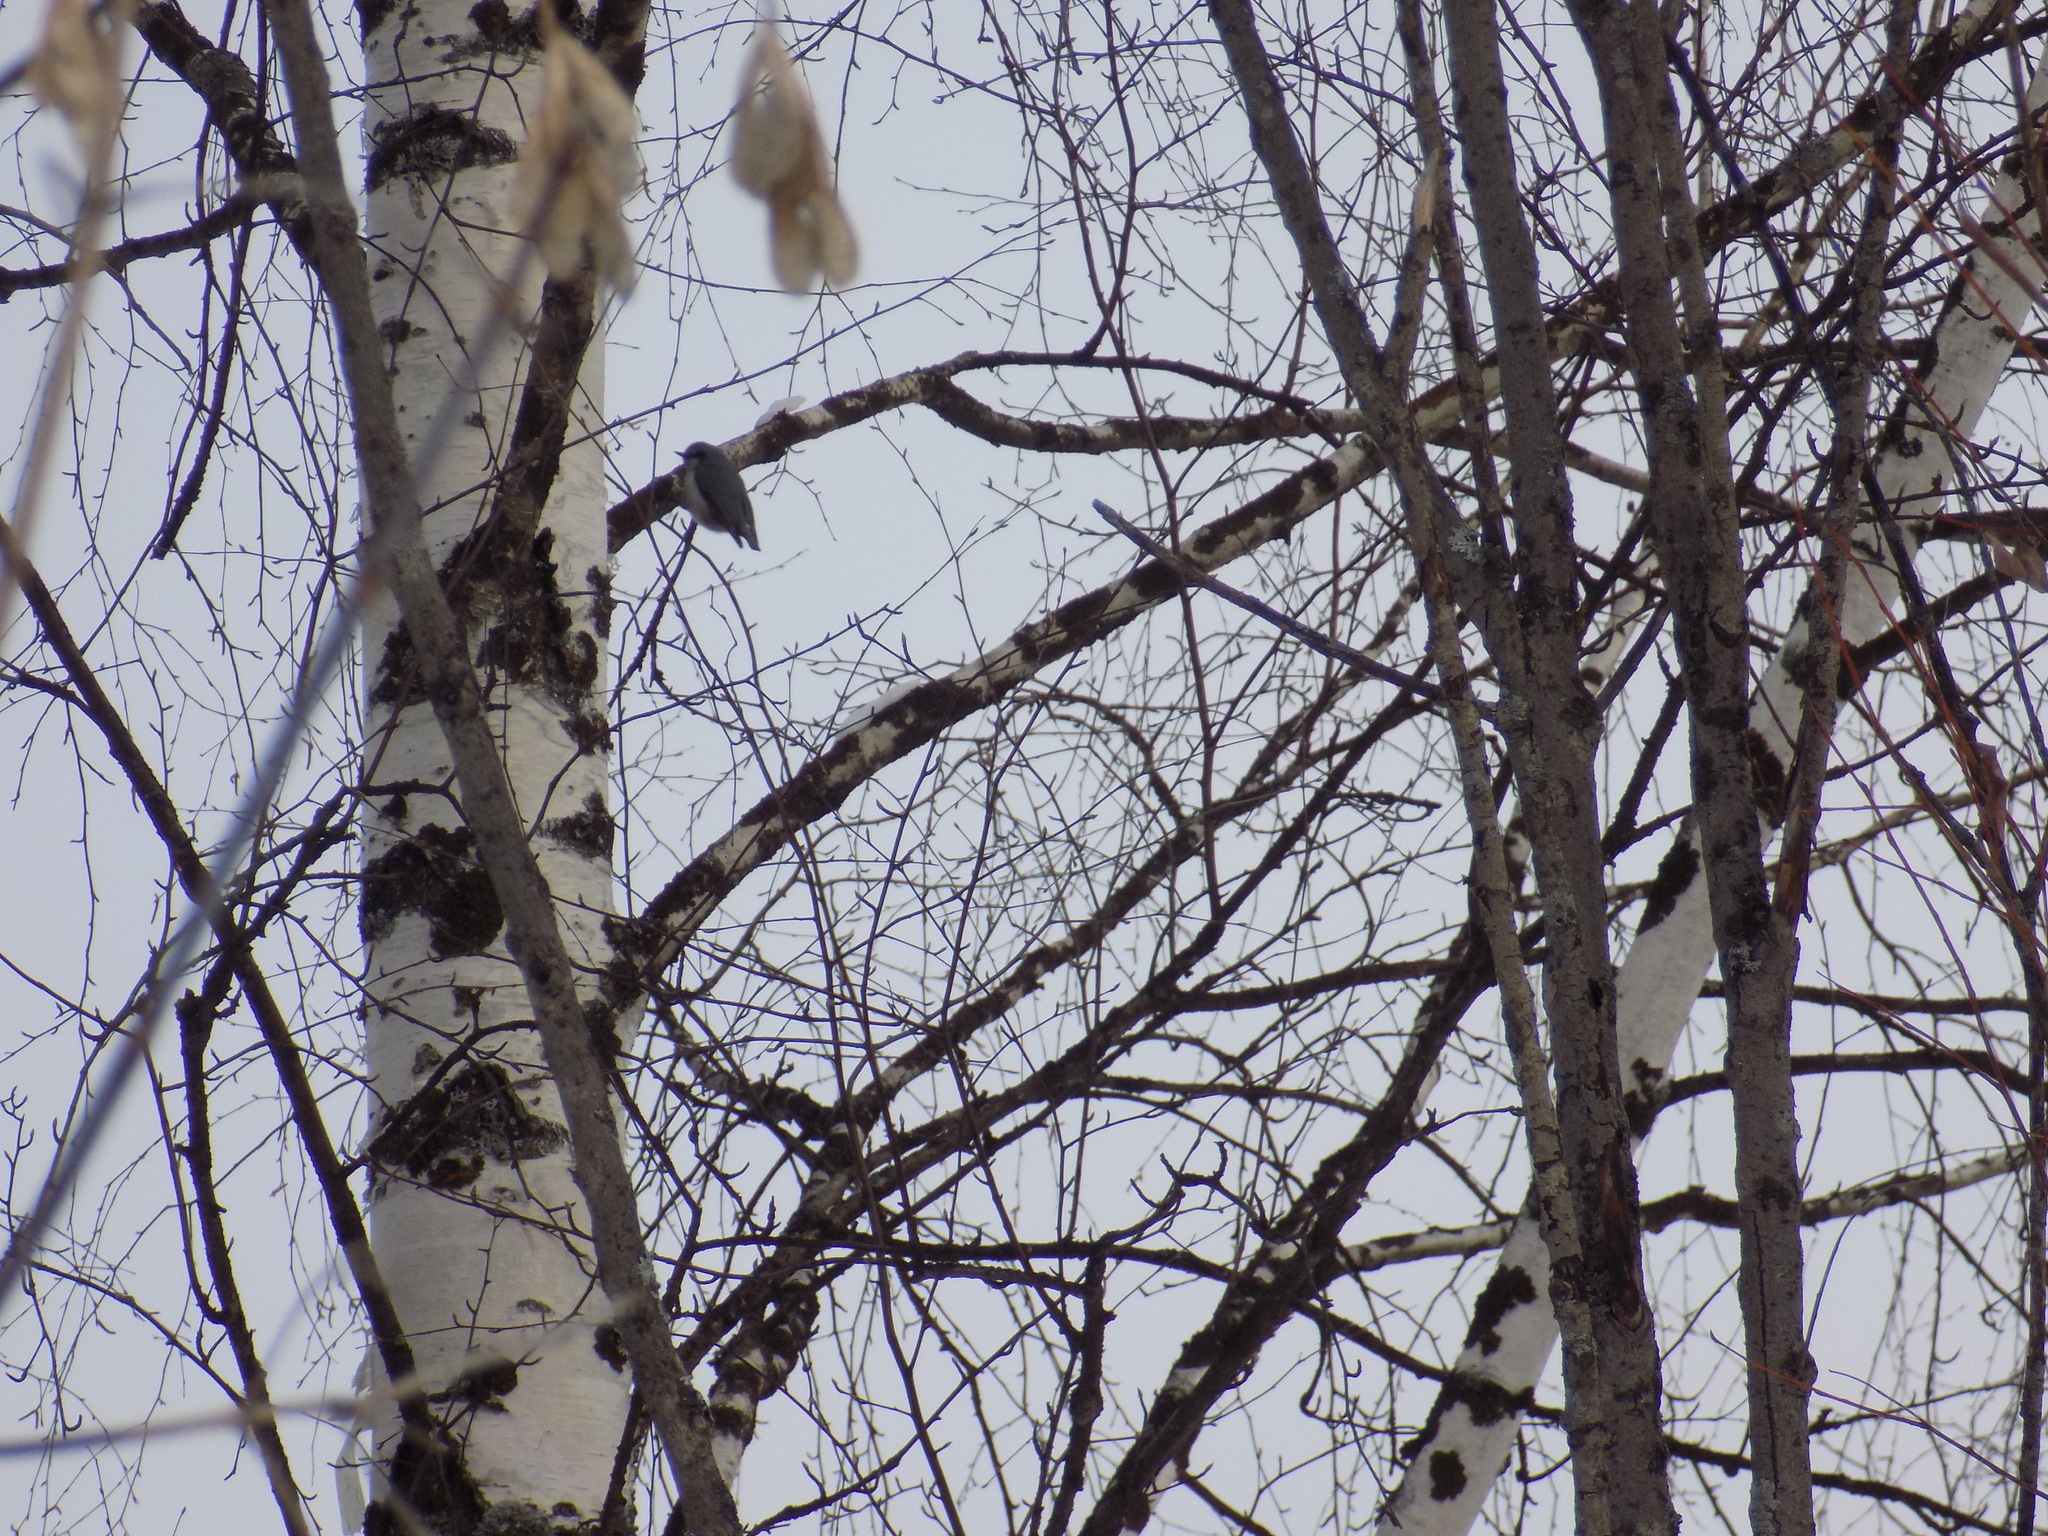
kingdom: Animalia
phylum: Chordata
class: Aves
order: Passeriformes
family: Sittidae
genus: Sitta
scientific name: Sitta europaea
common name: Eurasian nuthatch
